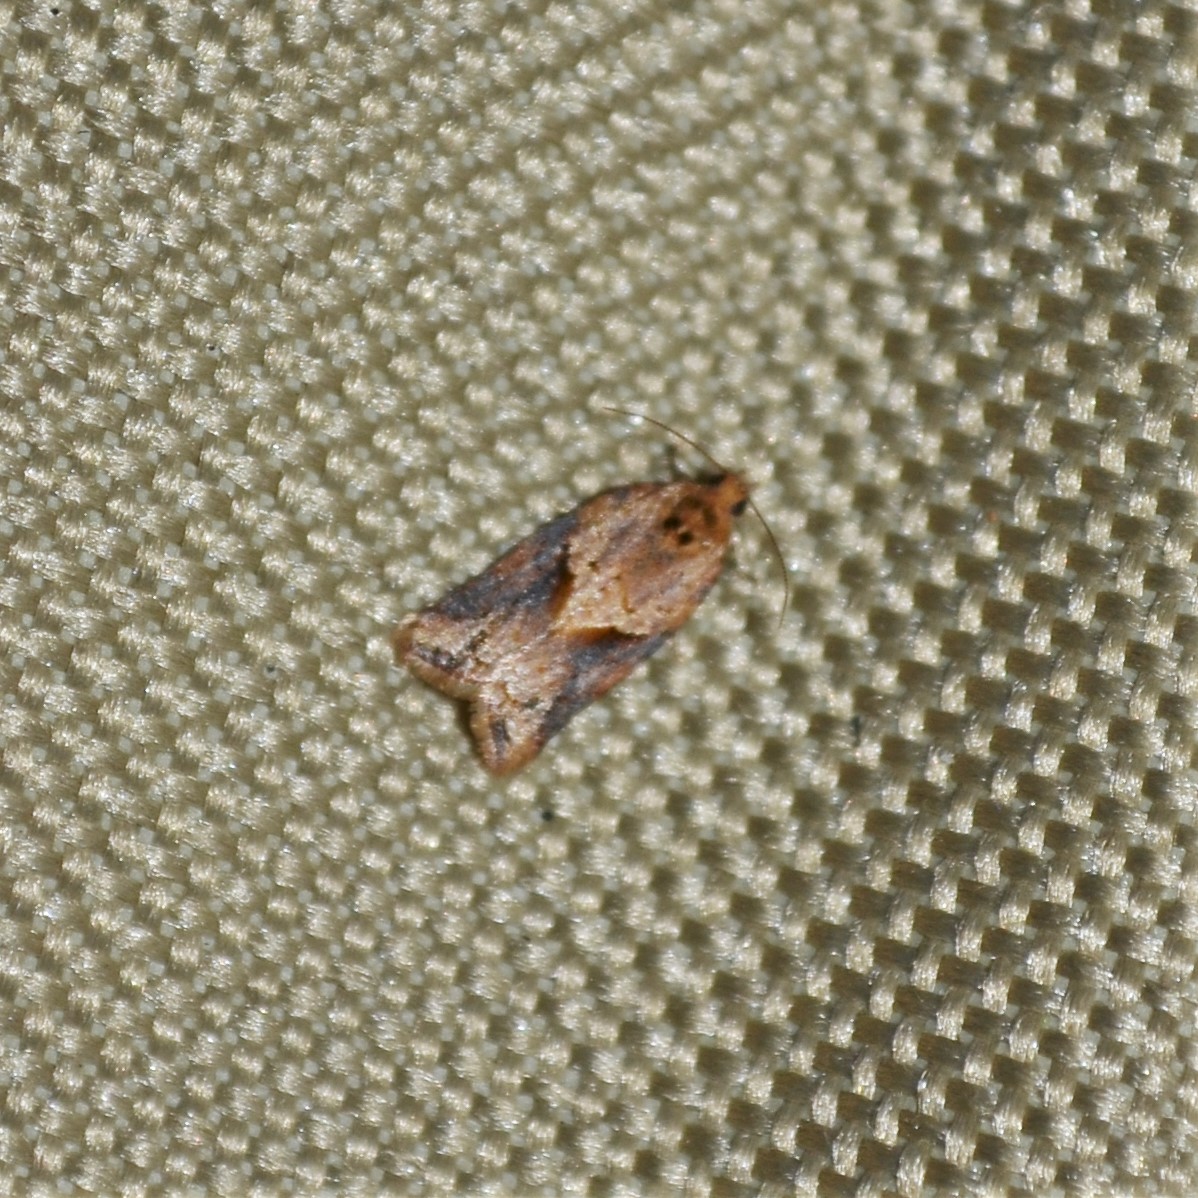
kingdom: Animalia
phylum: Arthropoda
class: Insecta
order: Lepidoptera
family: Tortricidae
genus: Argyrotaenia
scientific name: Argyrotaenia ivana
